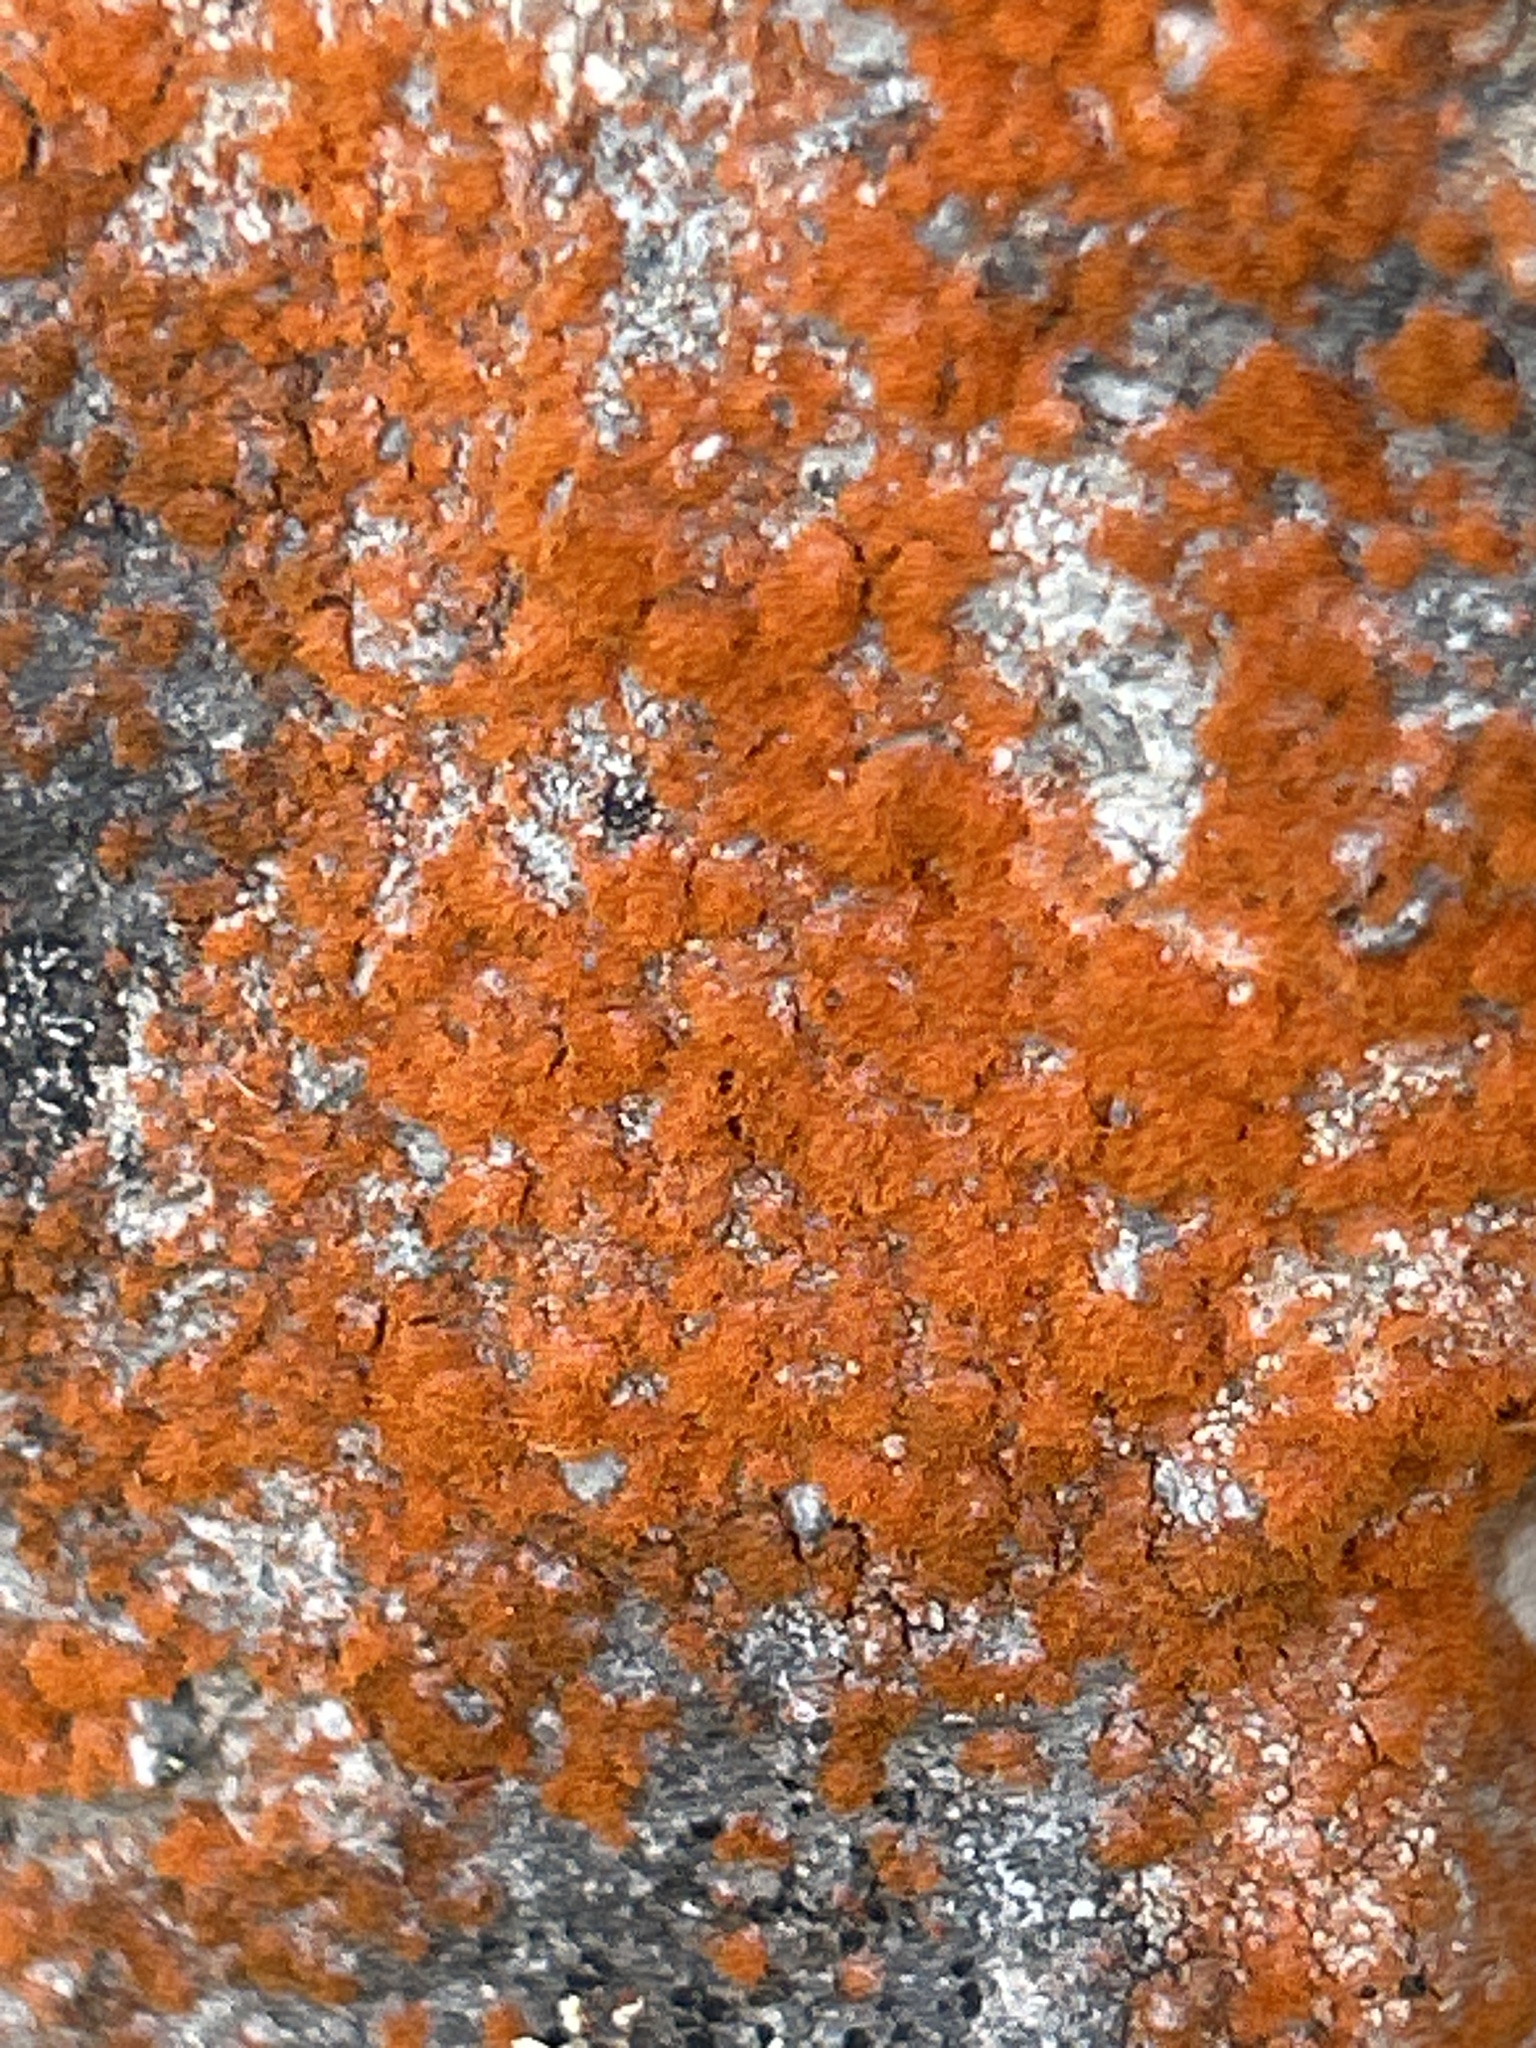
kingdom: Plantae
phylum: Chlorophyta
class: Ulvophyceae
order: Trentepohliales
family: Trentepohliaceae
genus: Trentepohlia
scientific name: Trentepohlia aurea
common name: Orange rock hair
